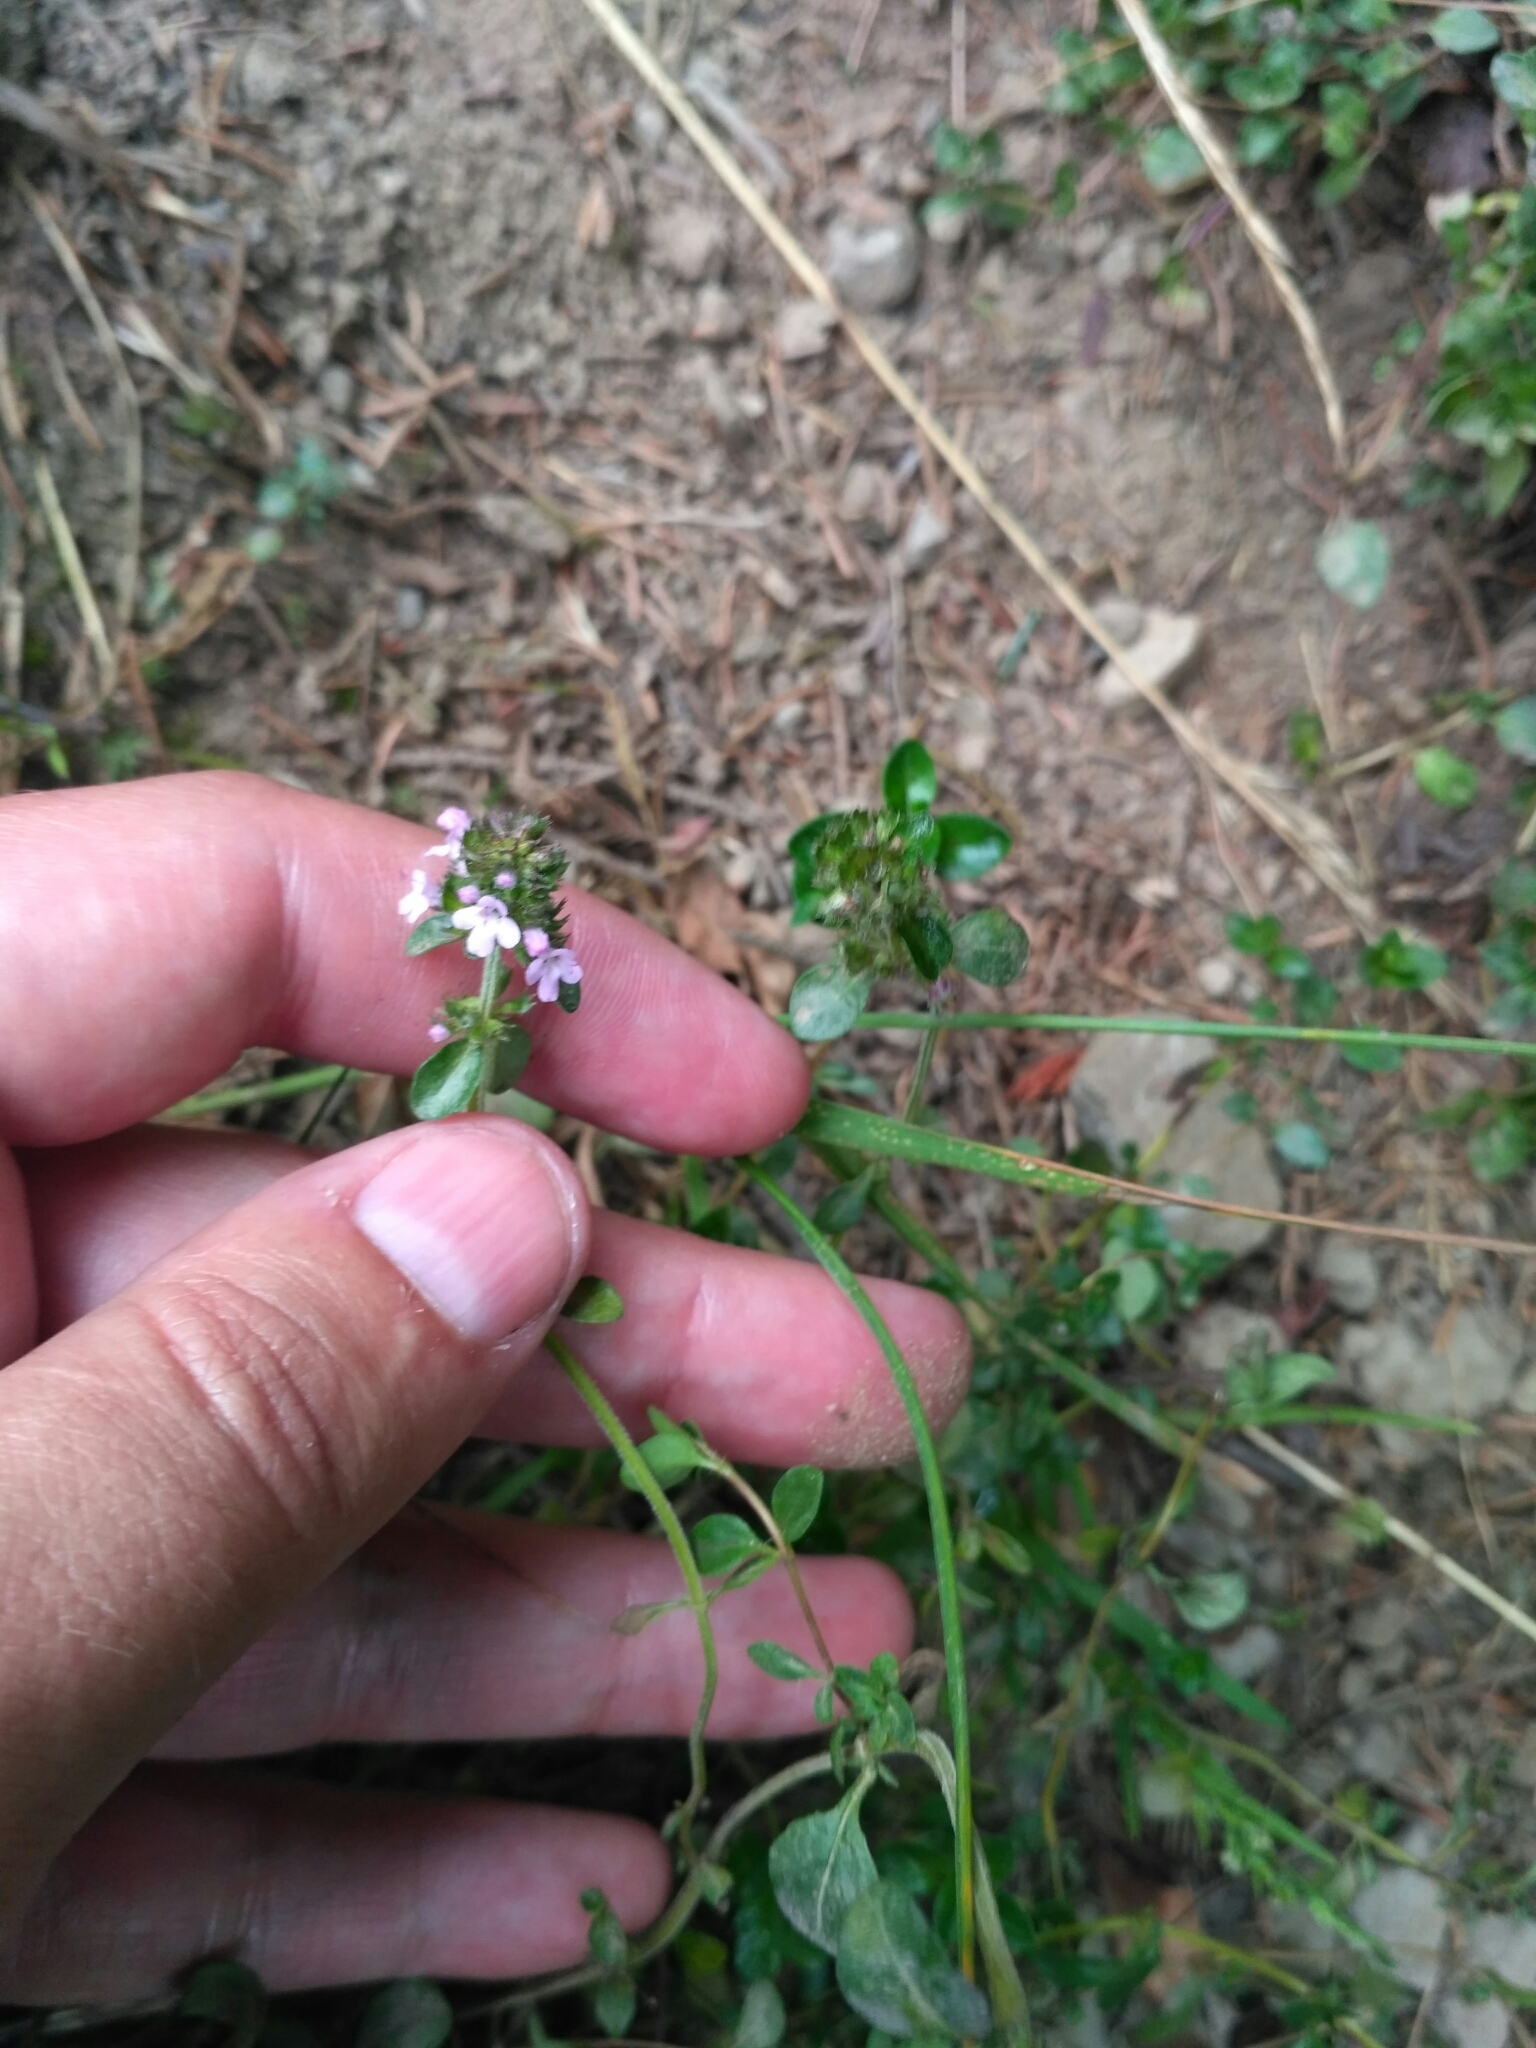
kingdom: Plantae
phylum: Tracheophyta
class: Magnoliopsida
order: Lamiales
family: Lamiaceae
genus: Thymus
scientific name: Thymus pulegioides
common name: Large thyme
